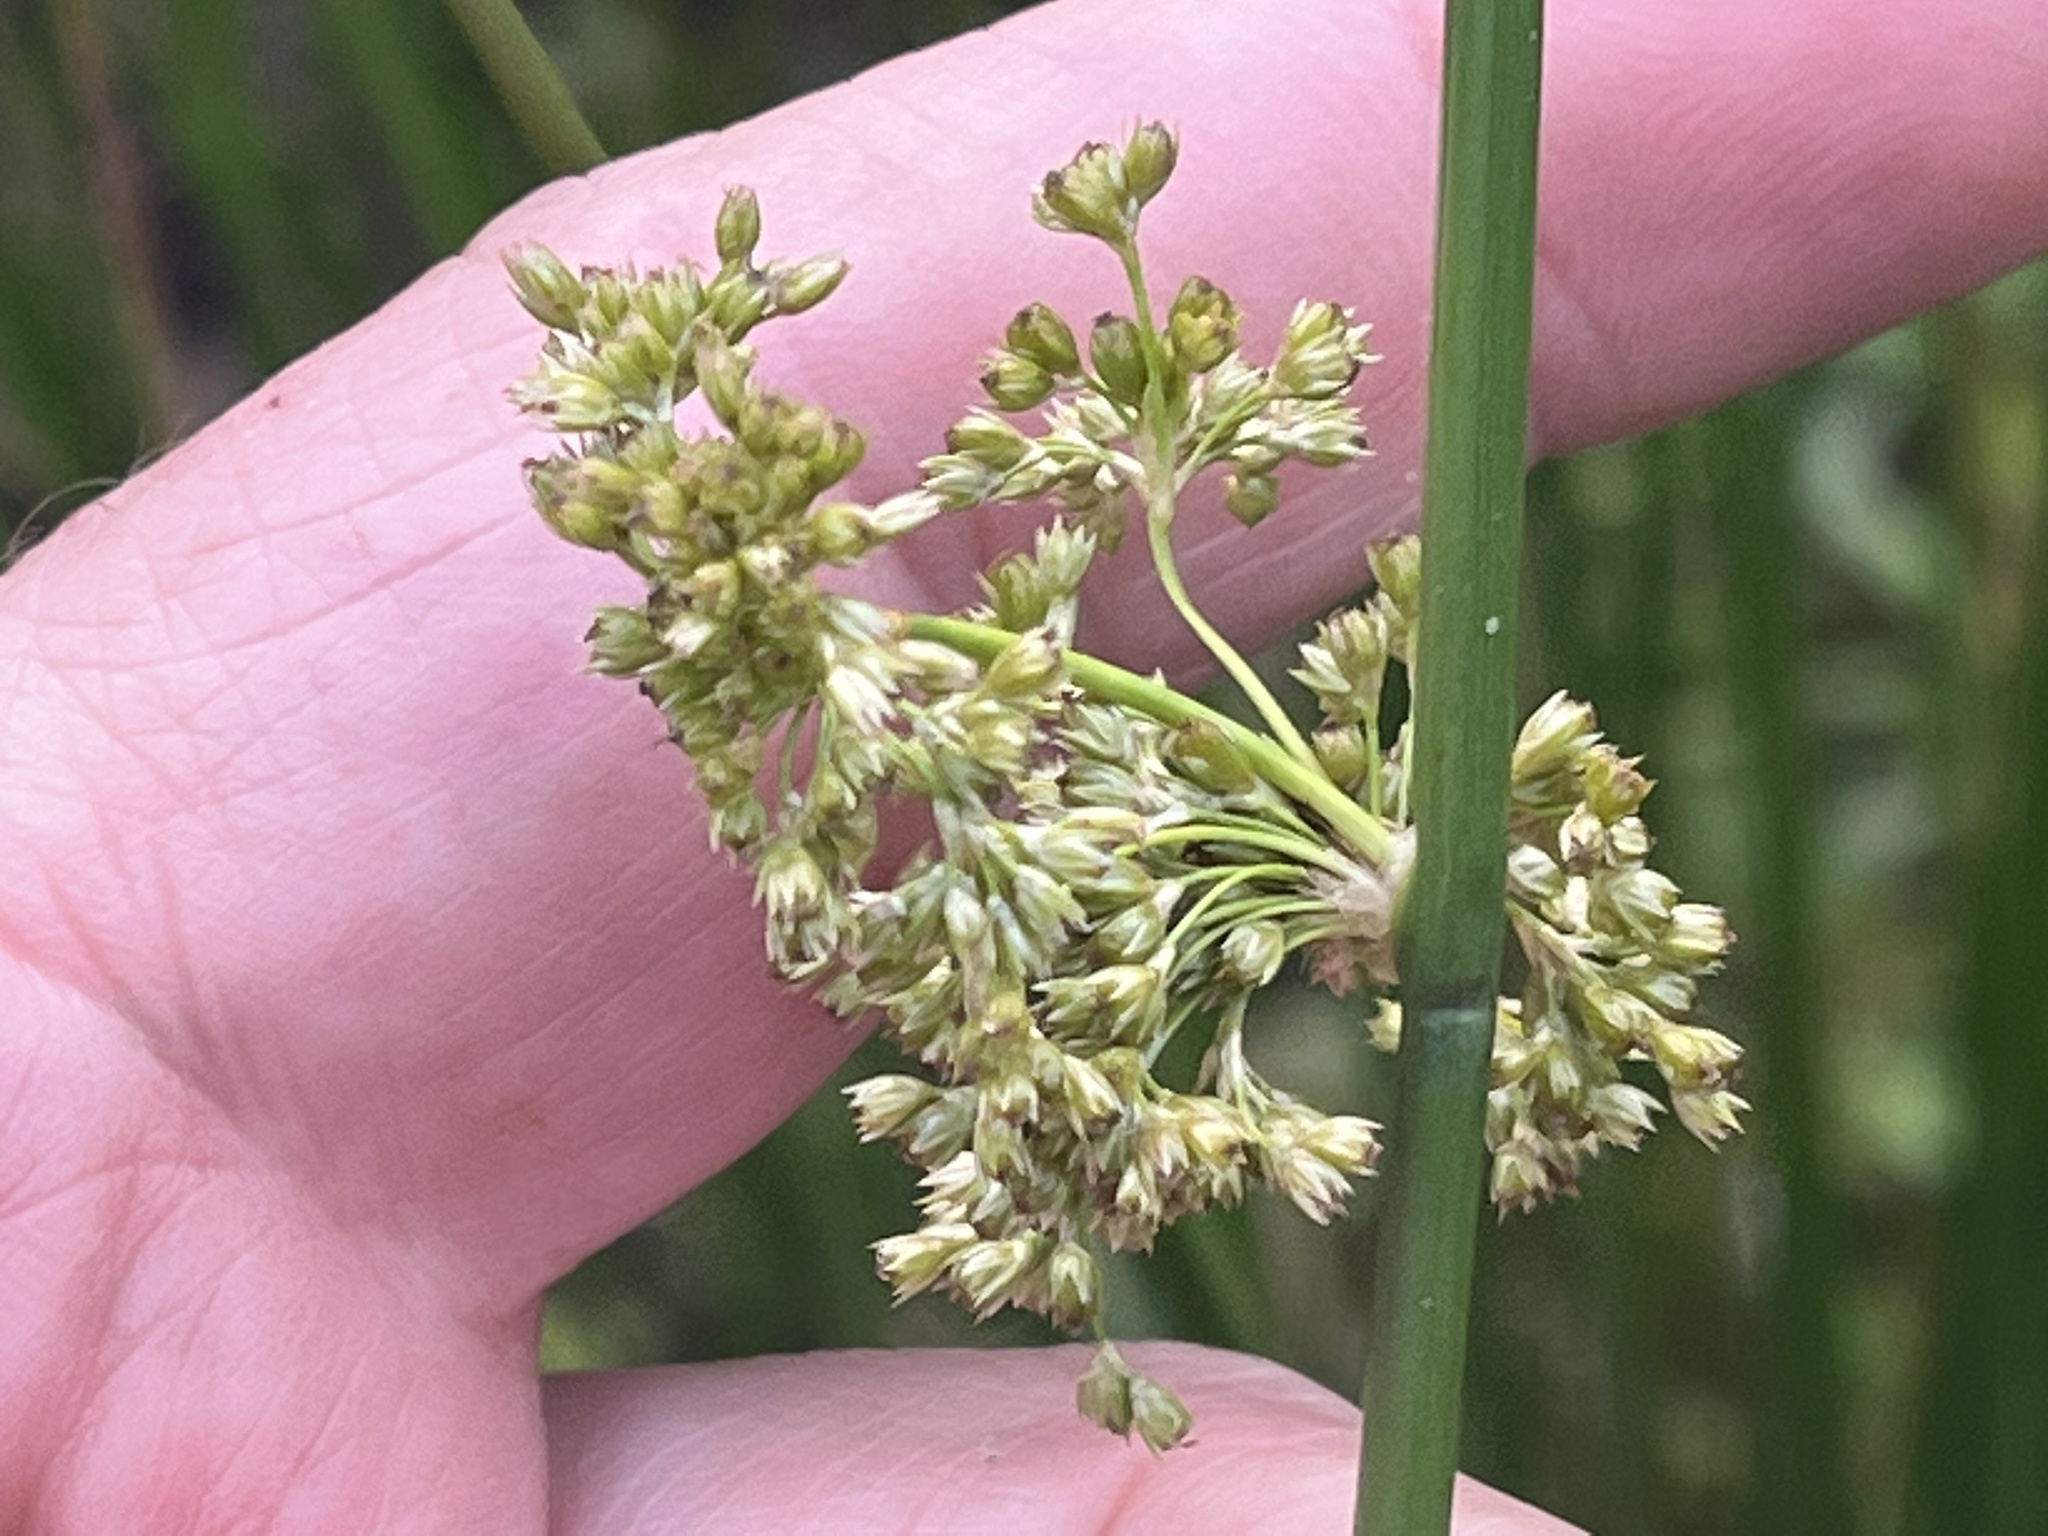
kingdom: Plantae
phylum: Tracheophyta
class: Liliopsida
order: Poales
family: Juncaceae
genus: Juncus
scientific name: Juncus effusus
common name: Soft rush
